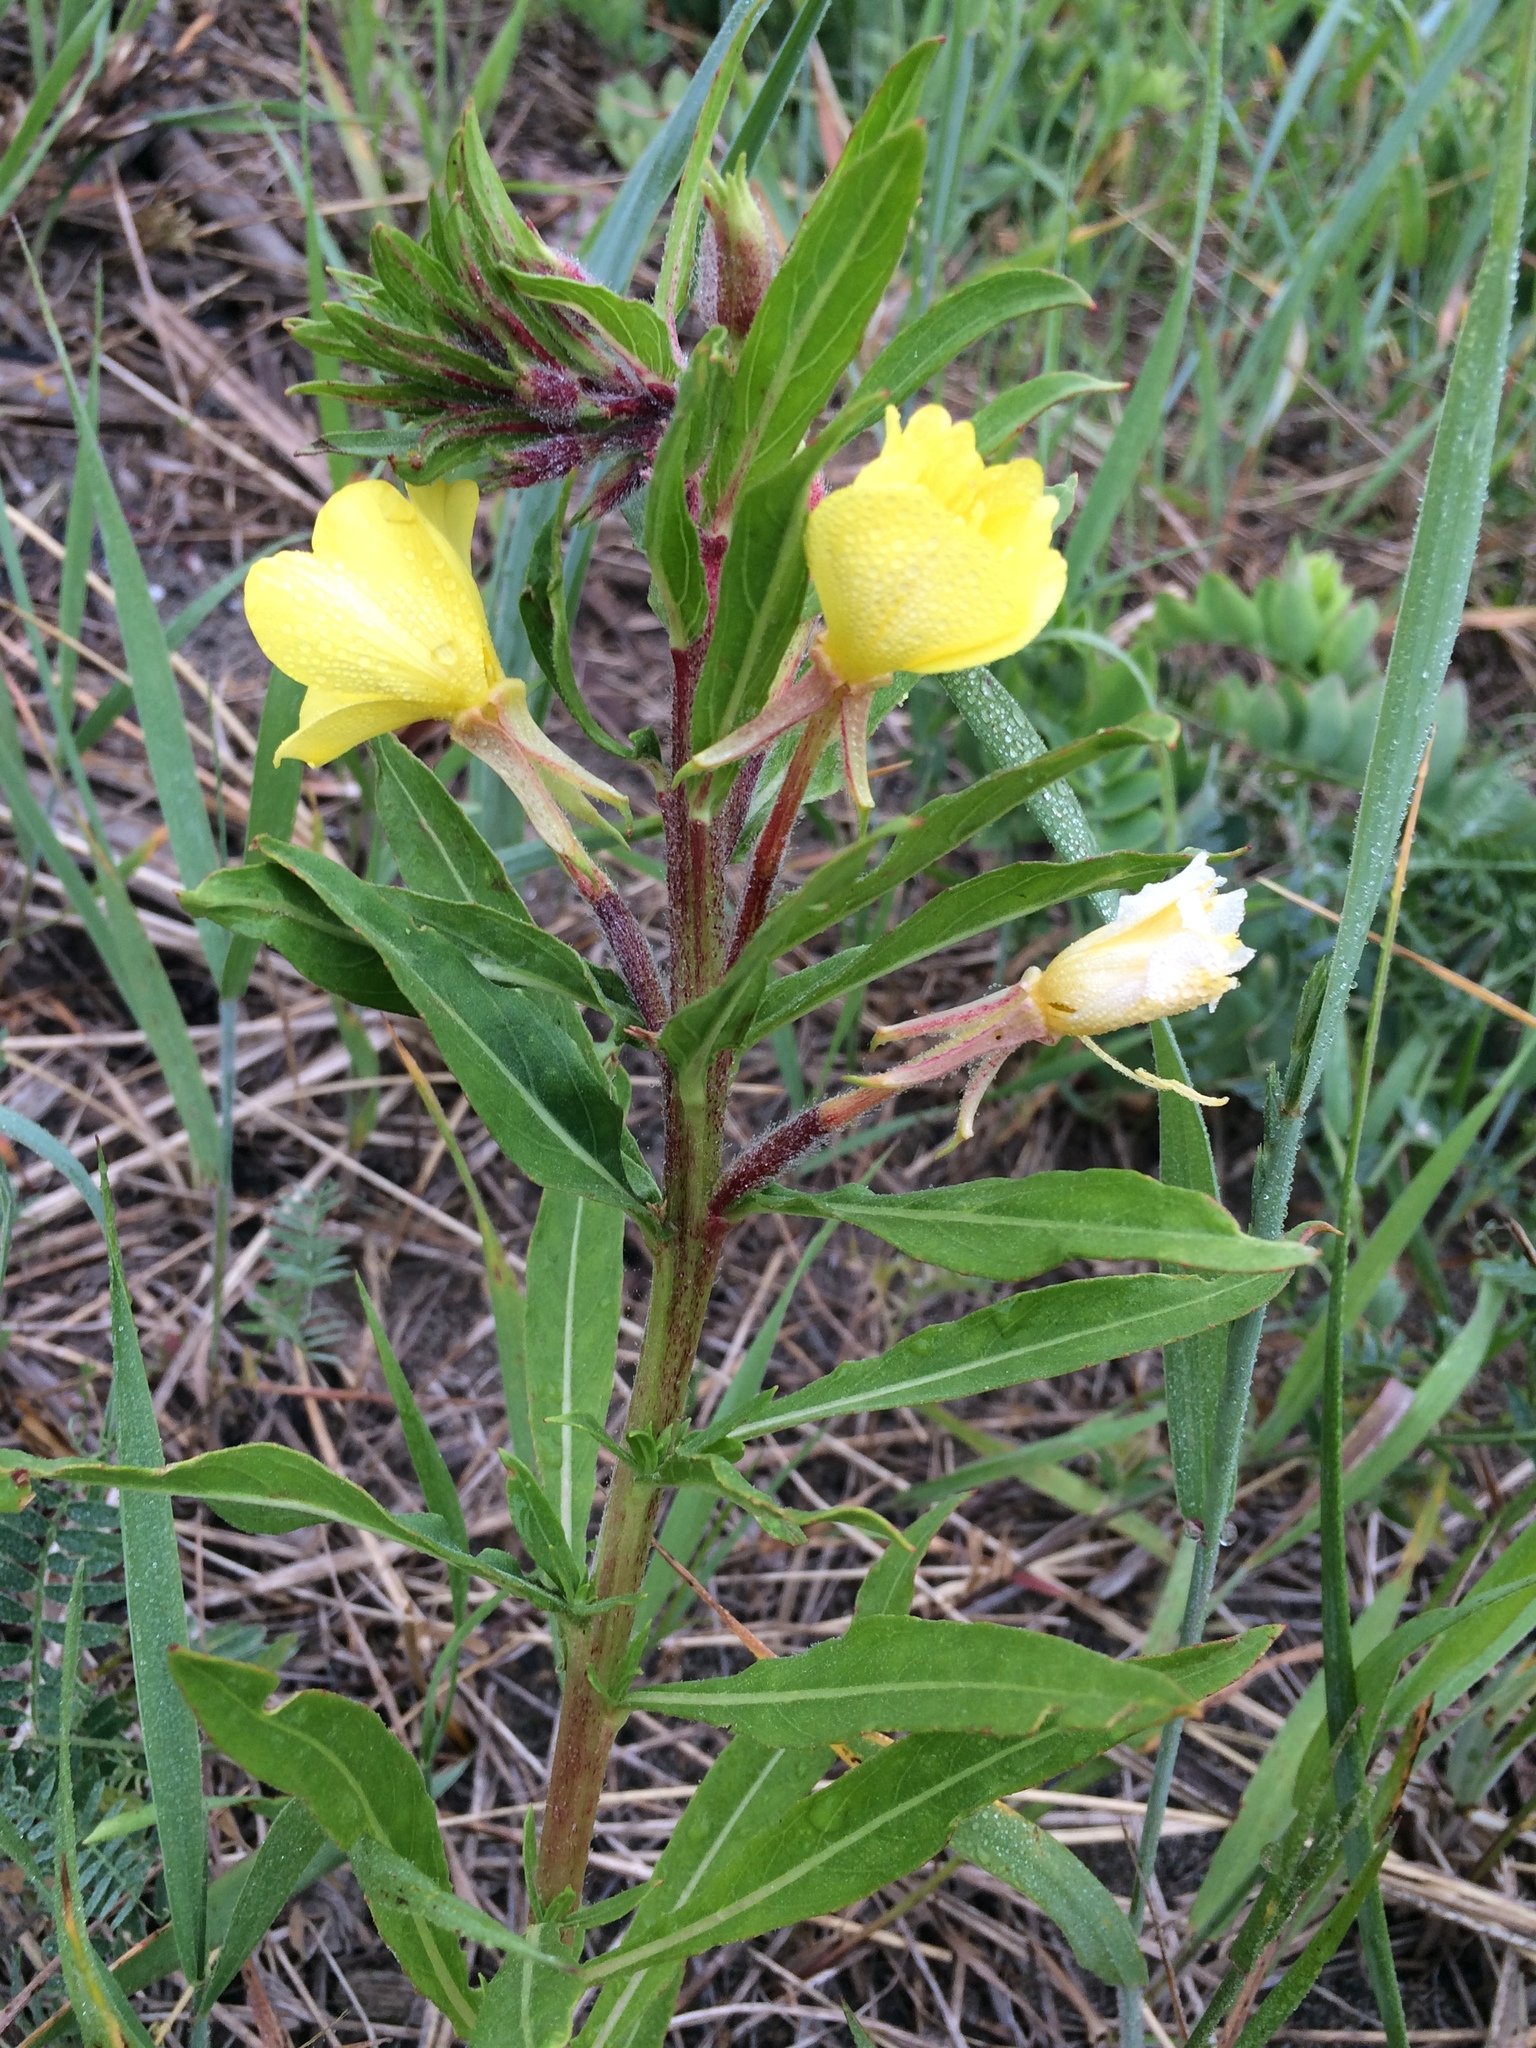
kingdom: Plantae
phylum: Tracheophyta
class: Magnoliopsida
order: Myrtales
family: Onagraceae
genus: Oenothera
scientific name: Oenothera parviflora
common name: Least evening-primrose
